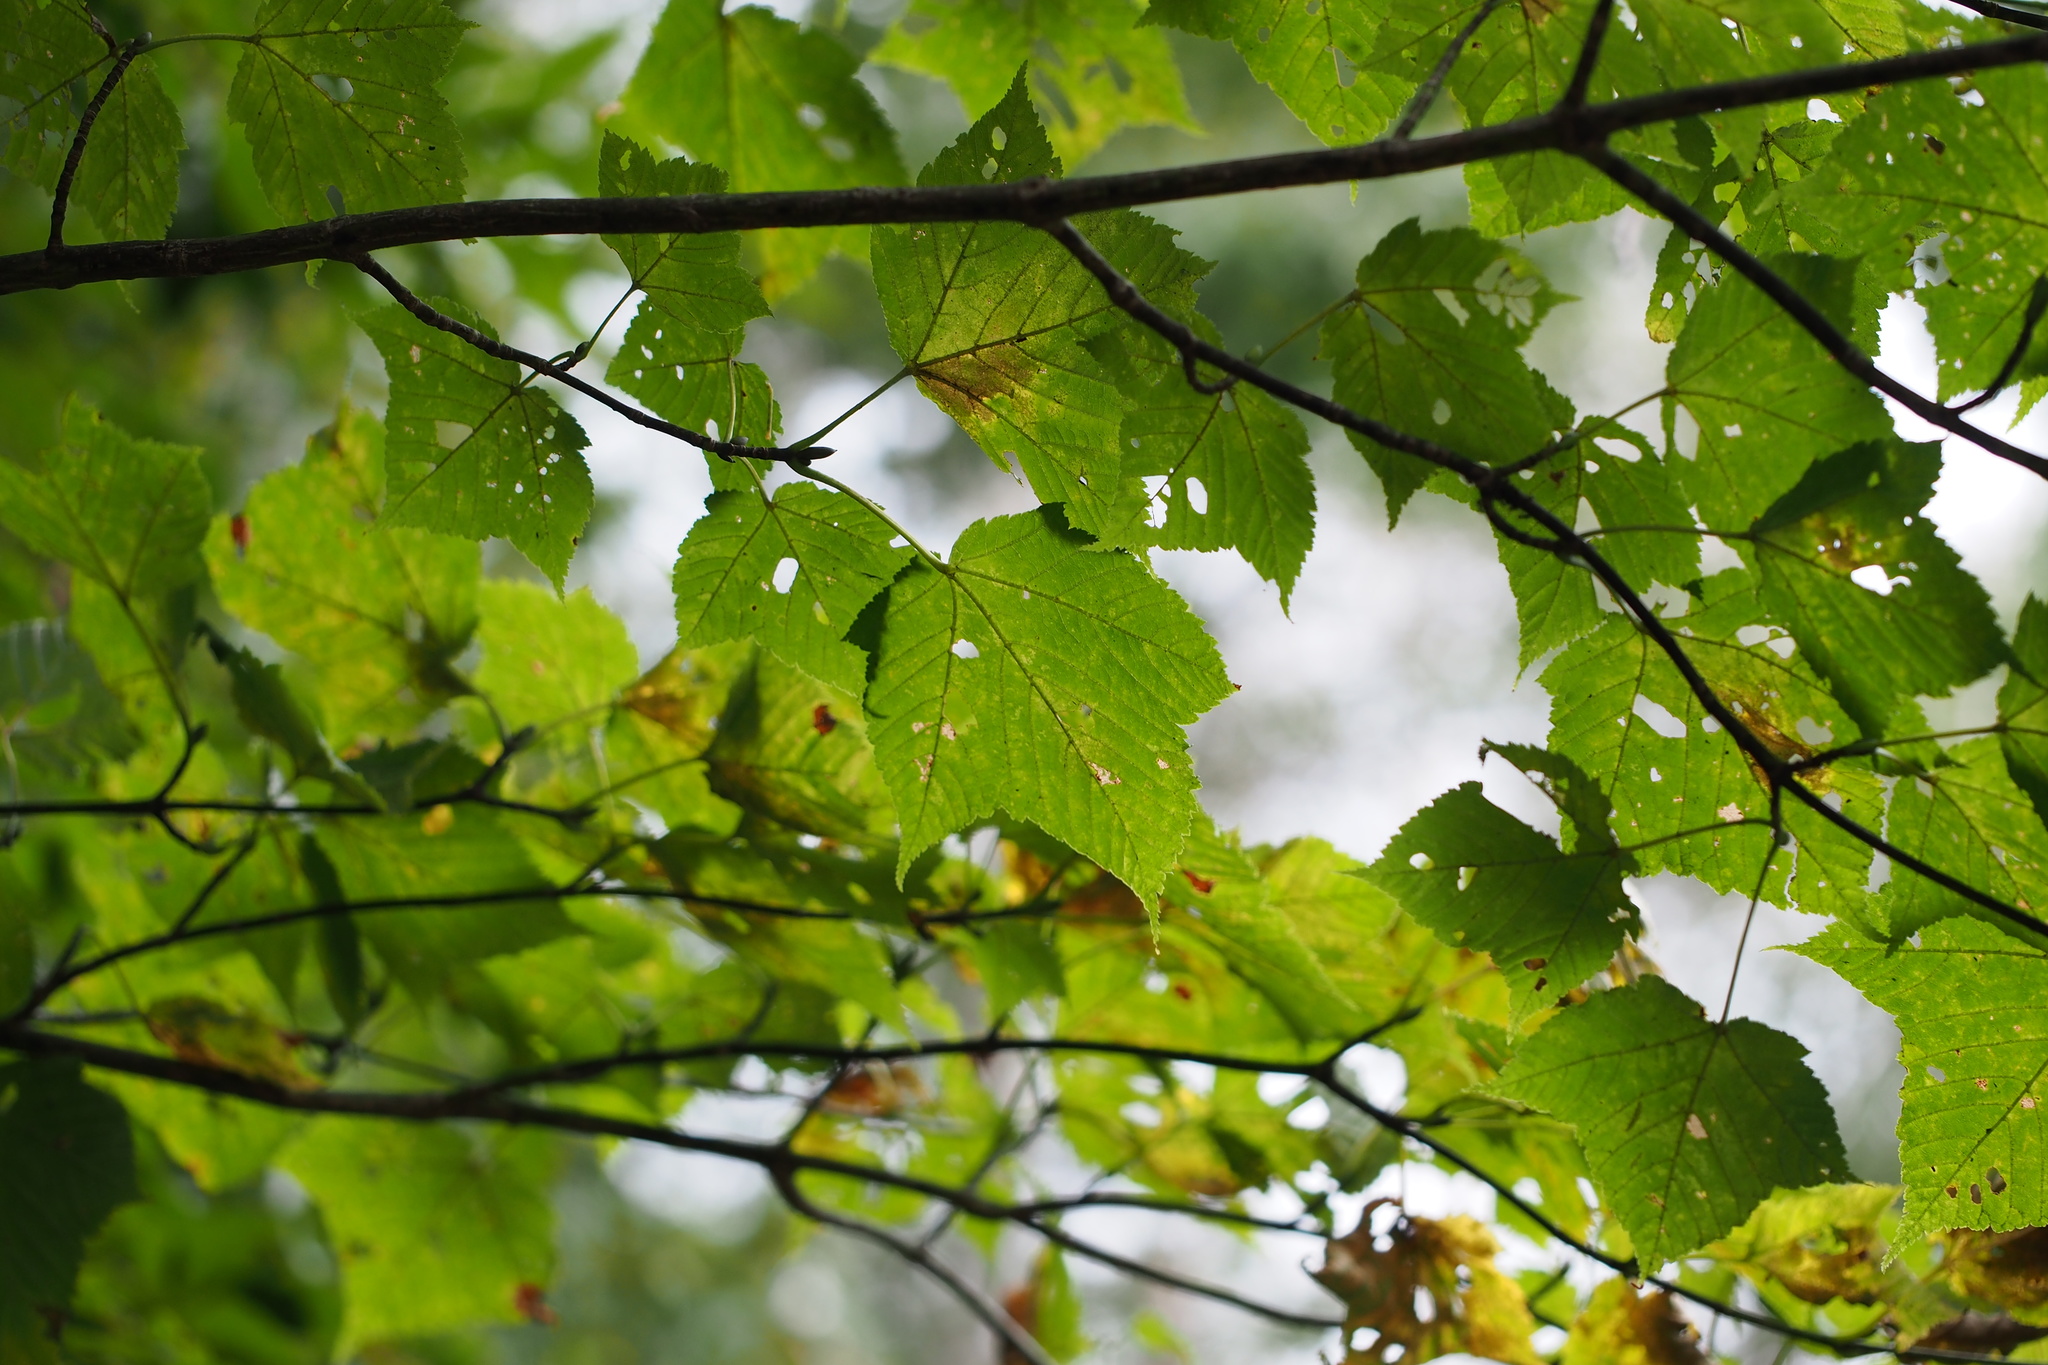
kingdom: Plantae
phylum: Tracheophyta
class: Magnoliopsida
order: Sapindales
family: Sapindaceae
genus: Acer
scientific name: Acer rufinerve
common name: Red veined maple
